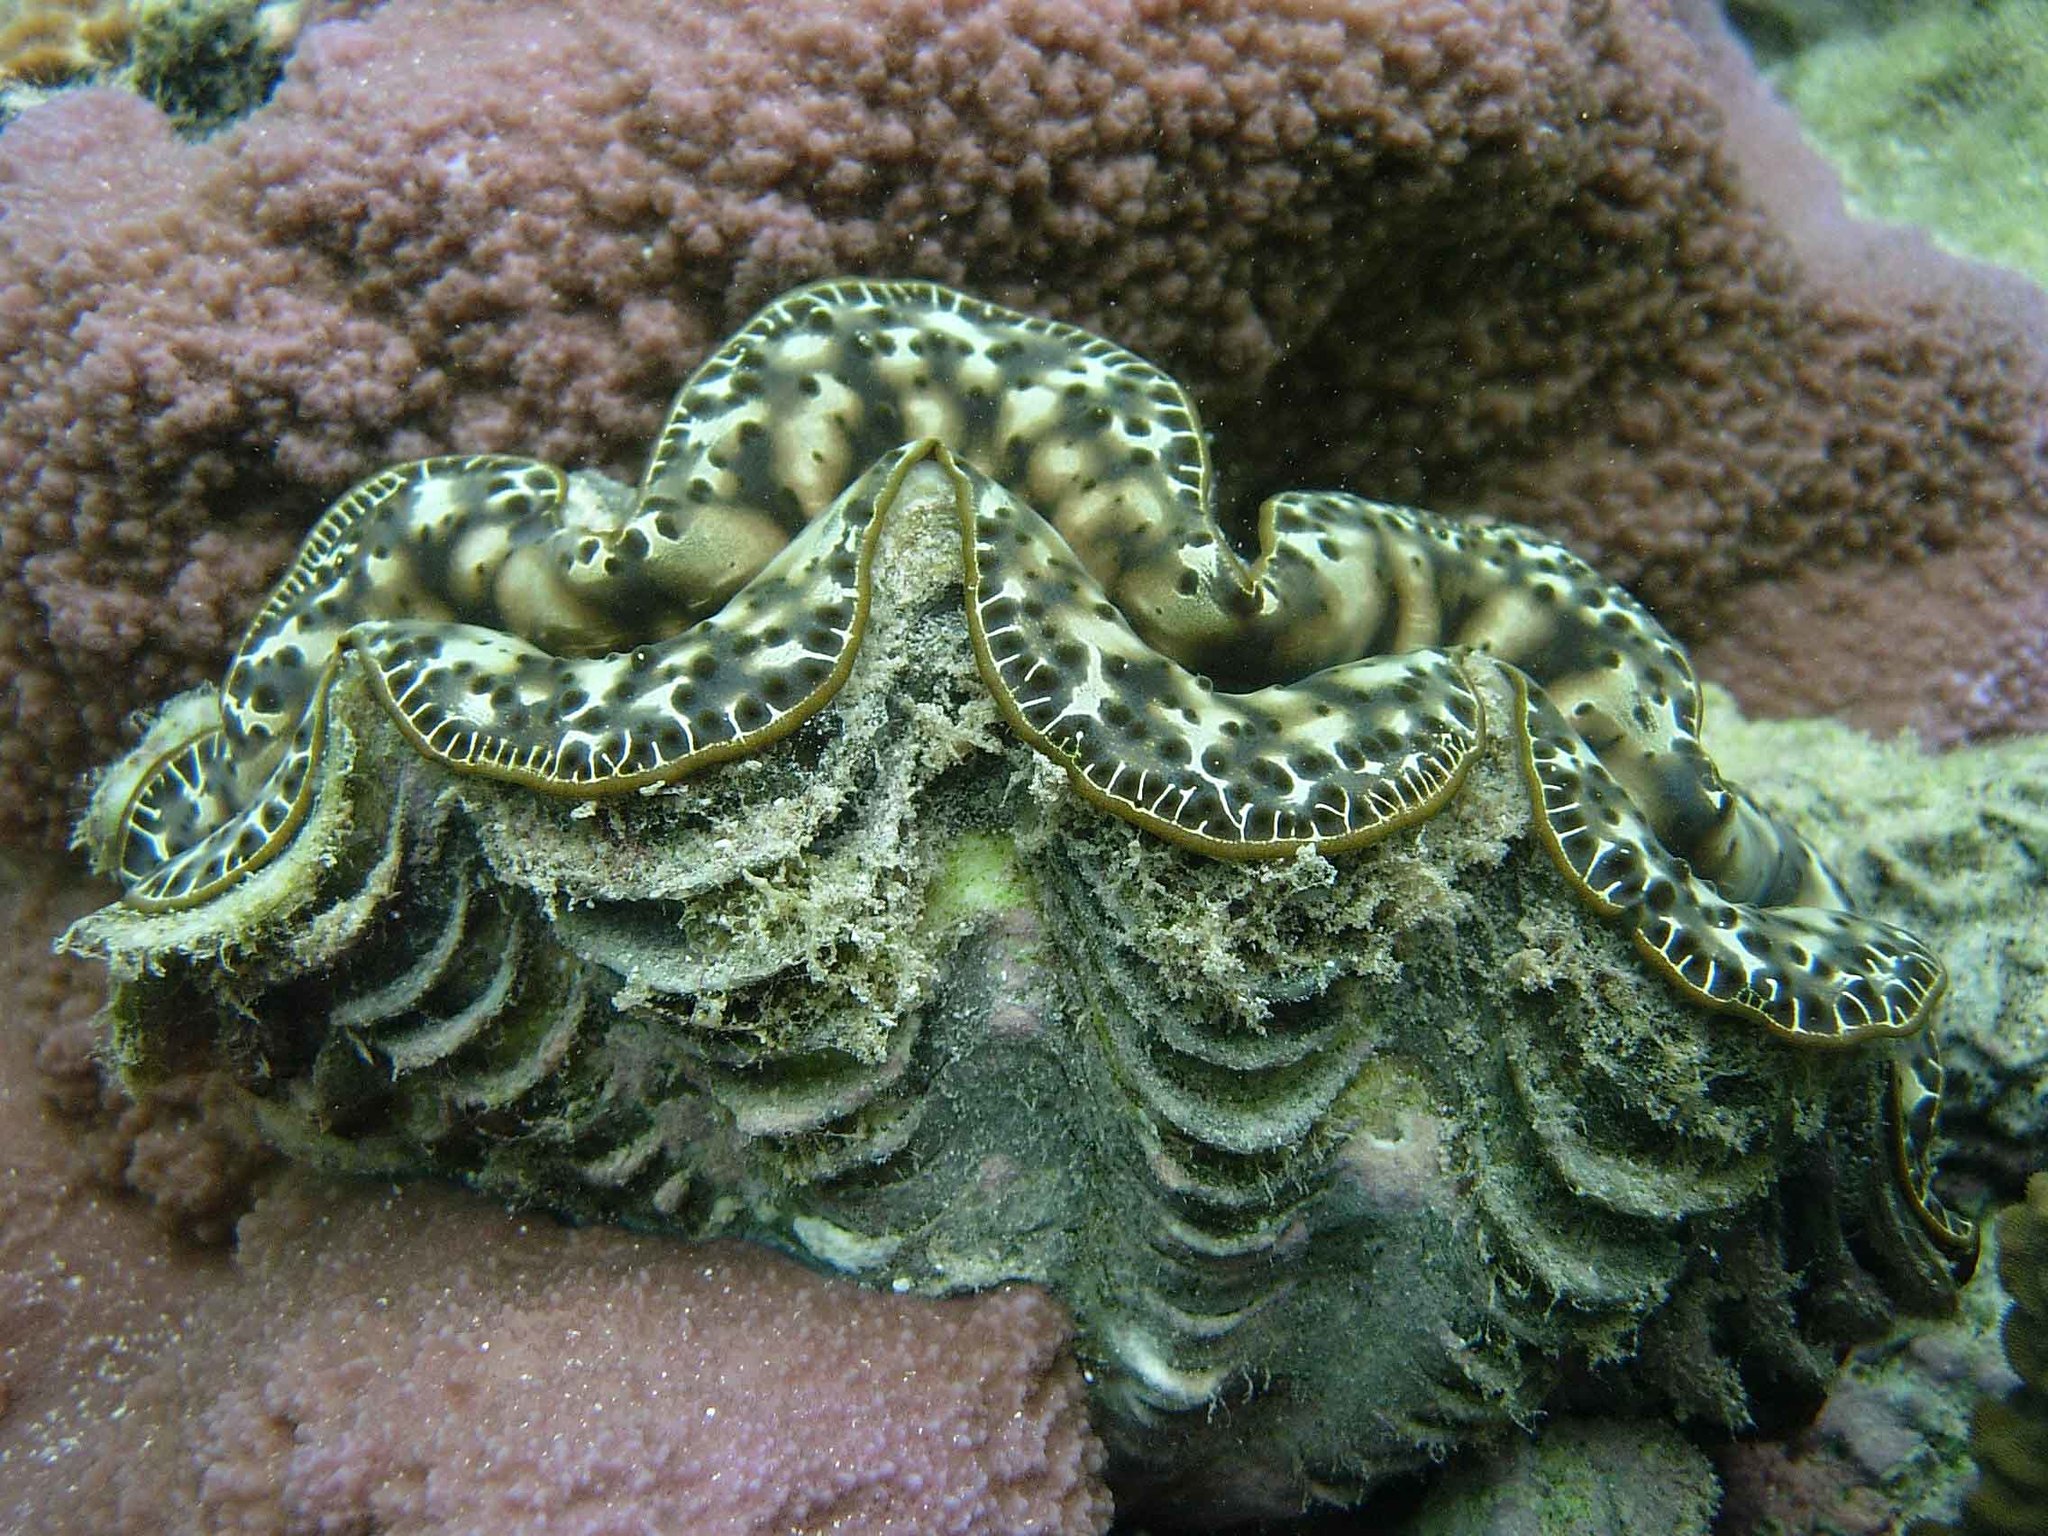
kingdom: Animalia
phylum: Mollusca
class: Bivalvia
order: Cardiida
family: Cardiidae
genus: Tridacna
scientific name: Tridacna maxima
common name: Small giant clam
